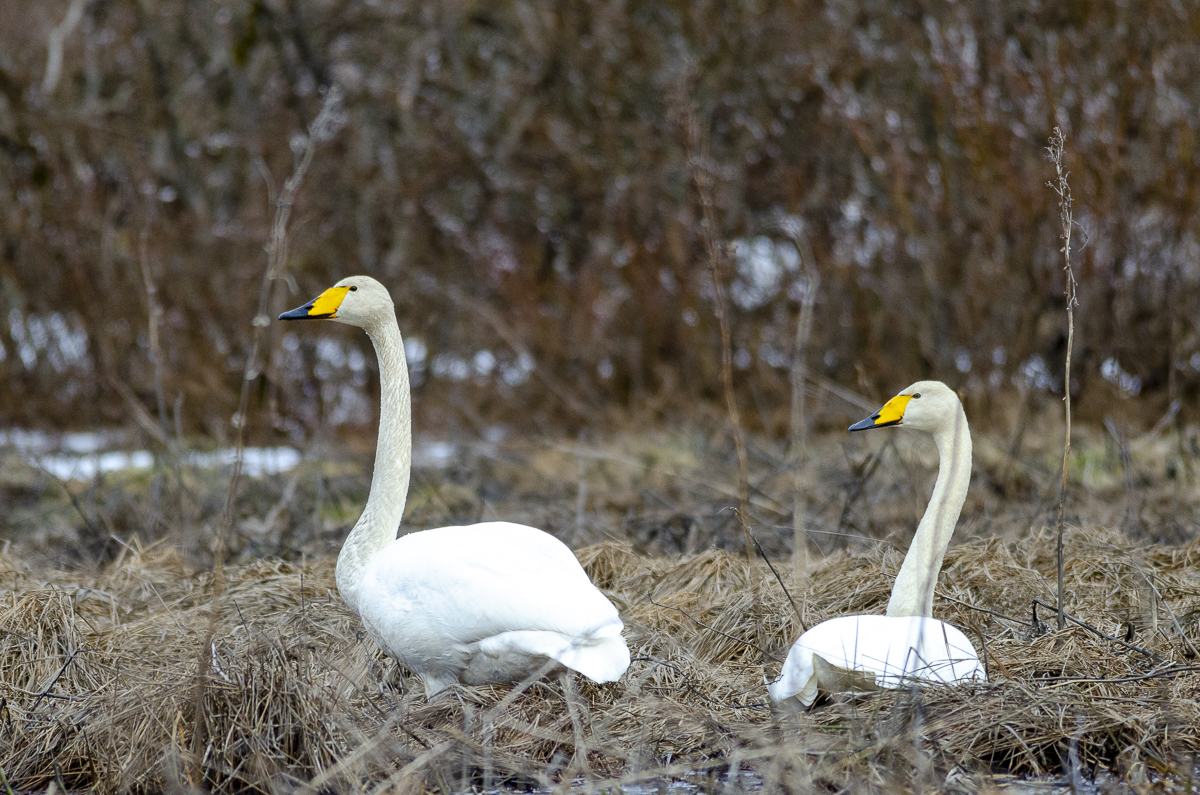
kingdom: Animalia
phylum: Chordata
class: Aves
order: Anseriformes
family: Anatidae
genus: Cygnus
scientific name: Cygnus cygnus
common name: Whooper swan
